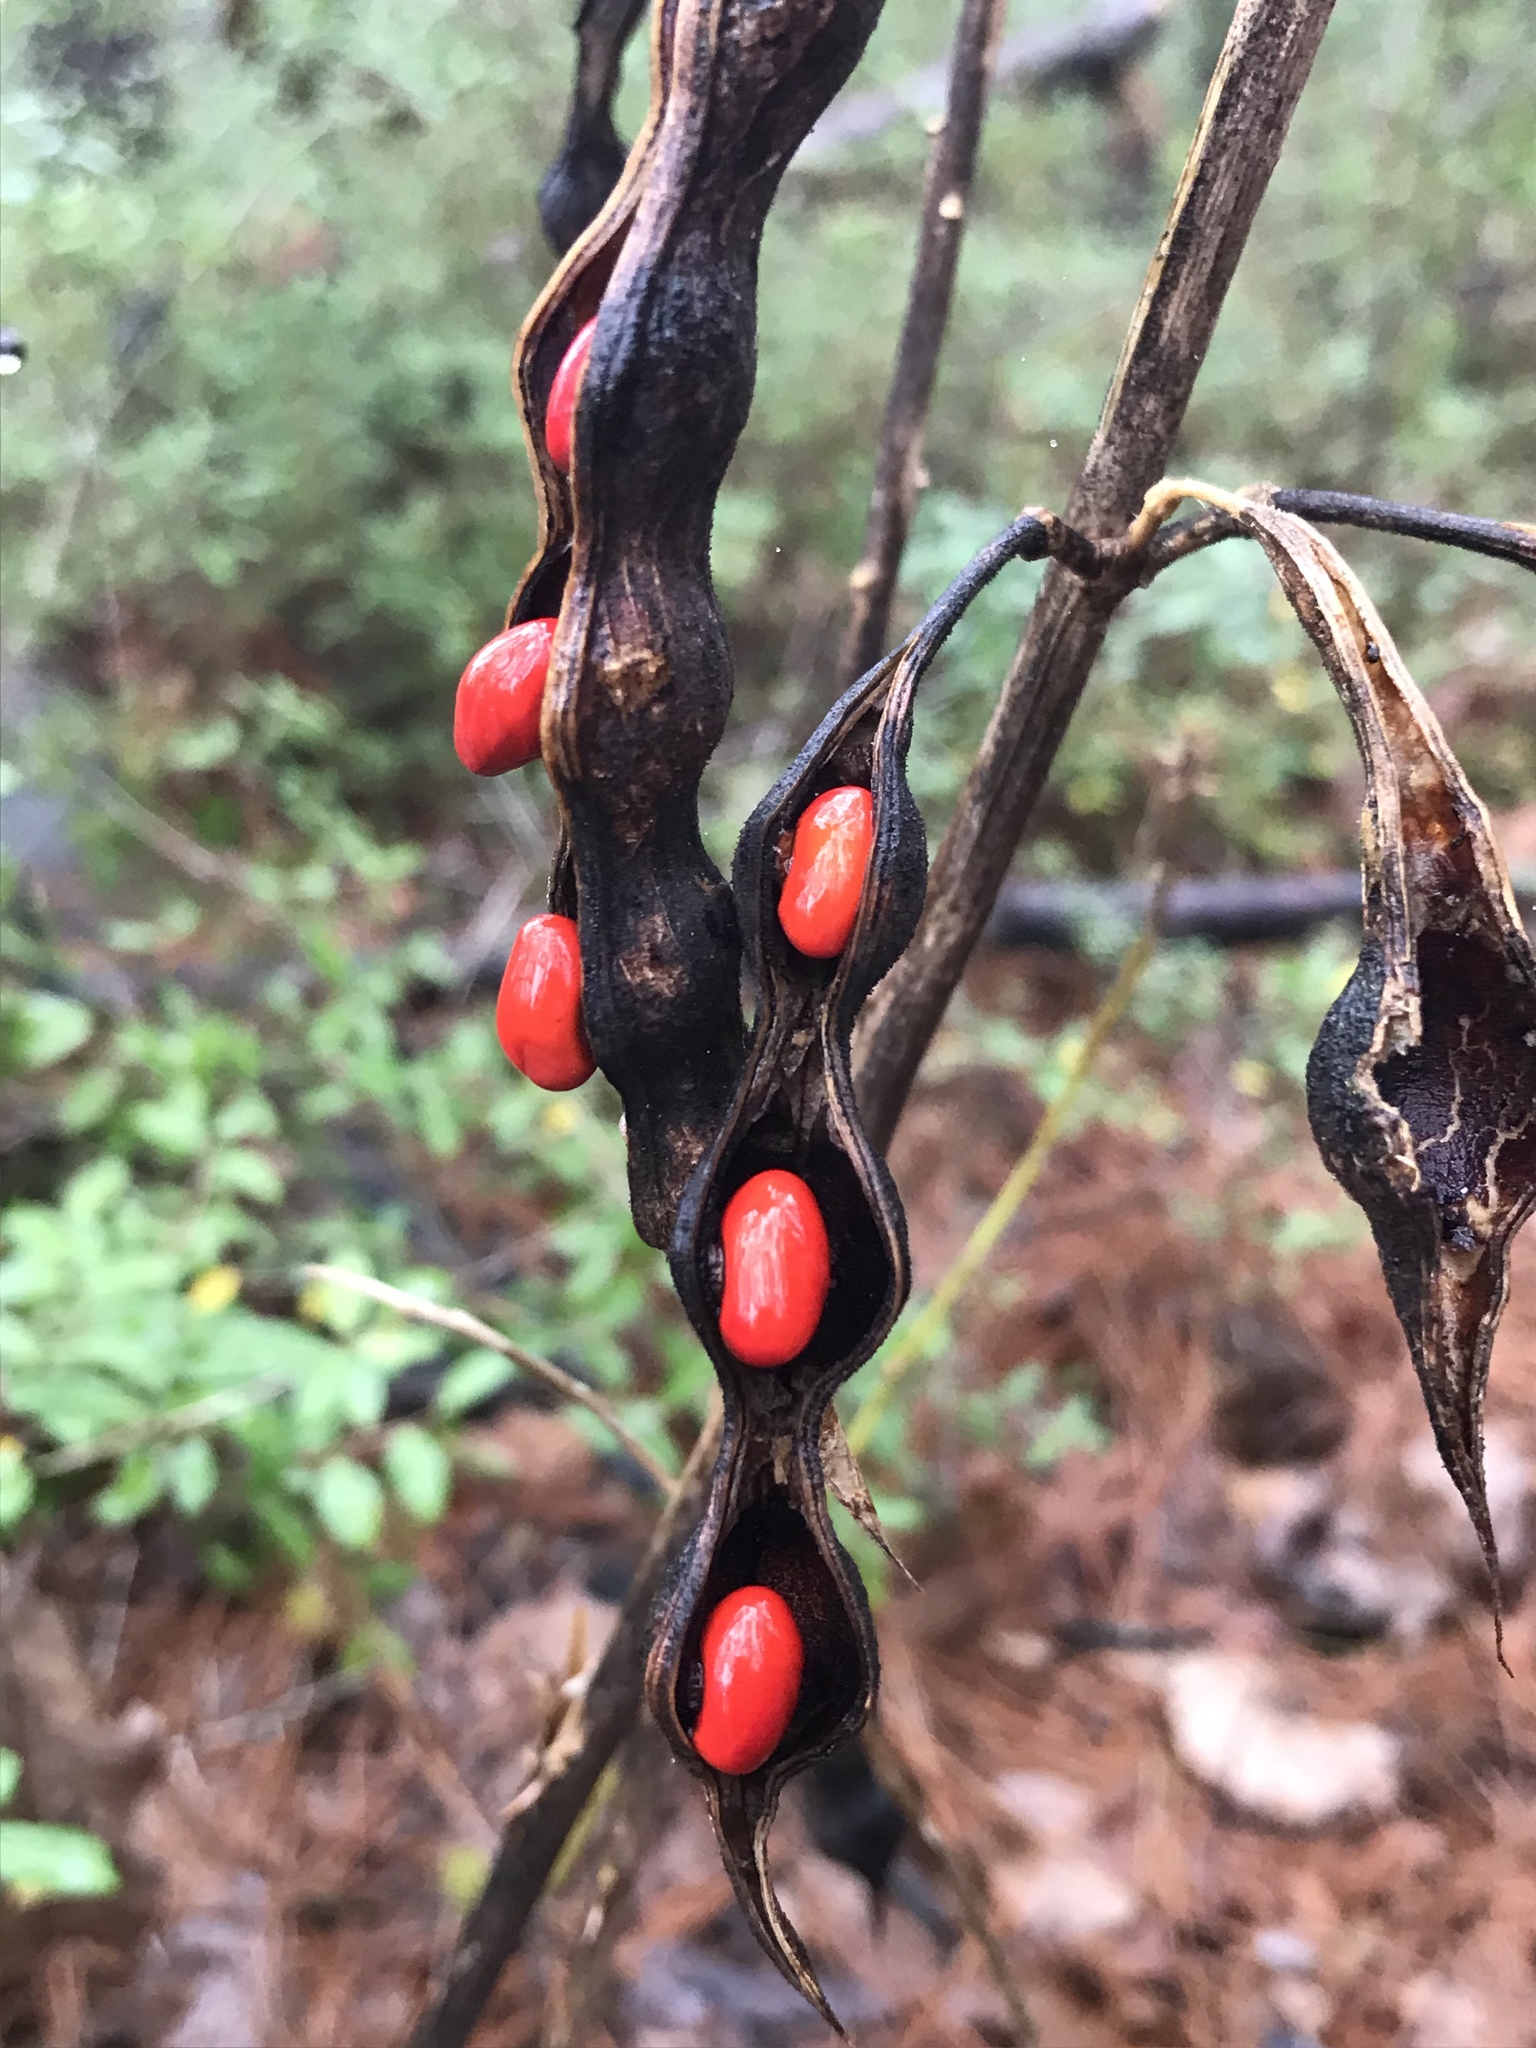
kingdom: Plantae
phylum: Tracheophyta
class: Magnoliopsida
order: Fabales
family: Fabaceae
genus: Erythrina
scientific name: Erythrina herbacea
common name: Coral-bean
